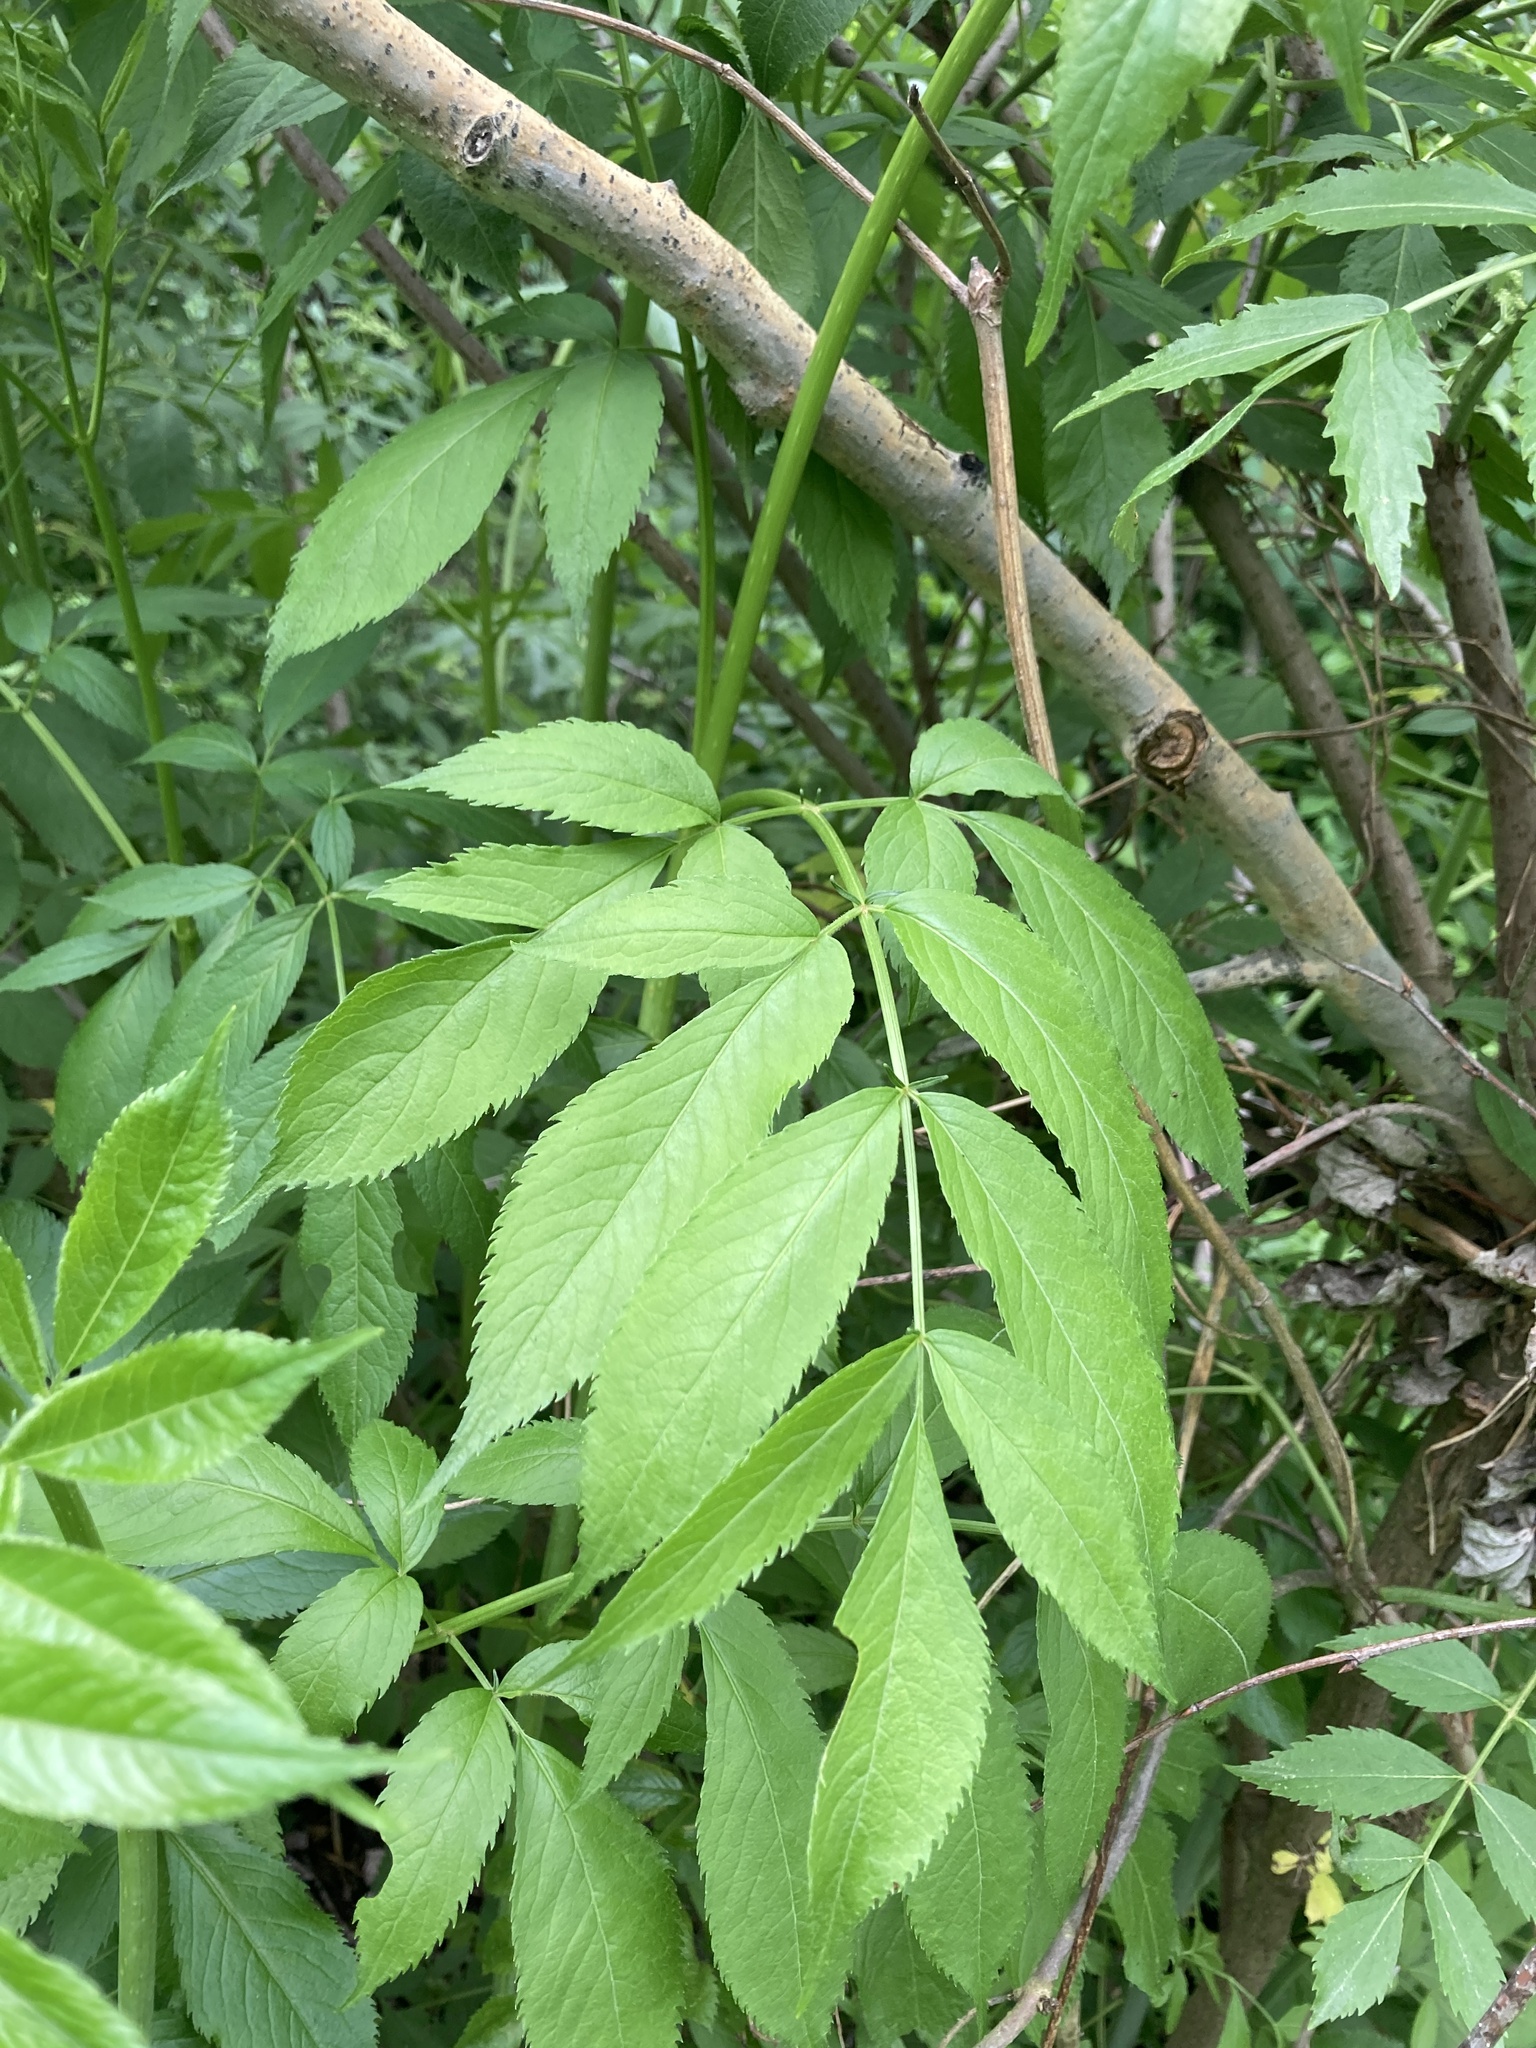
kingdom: Plantae
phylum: Tracheophyta
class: Magnoliopsida
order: Dipsacales
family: Viburnaceae
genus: Sambucus
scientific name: Sambucus canadensis
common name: American elder
